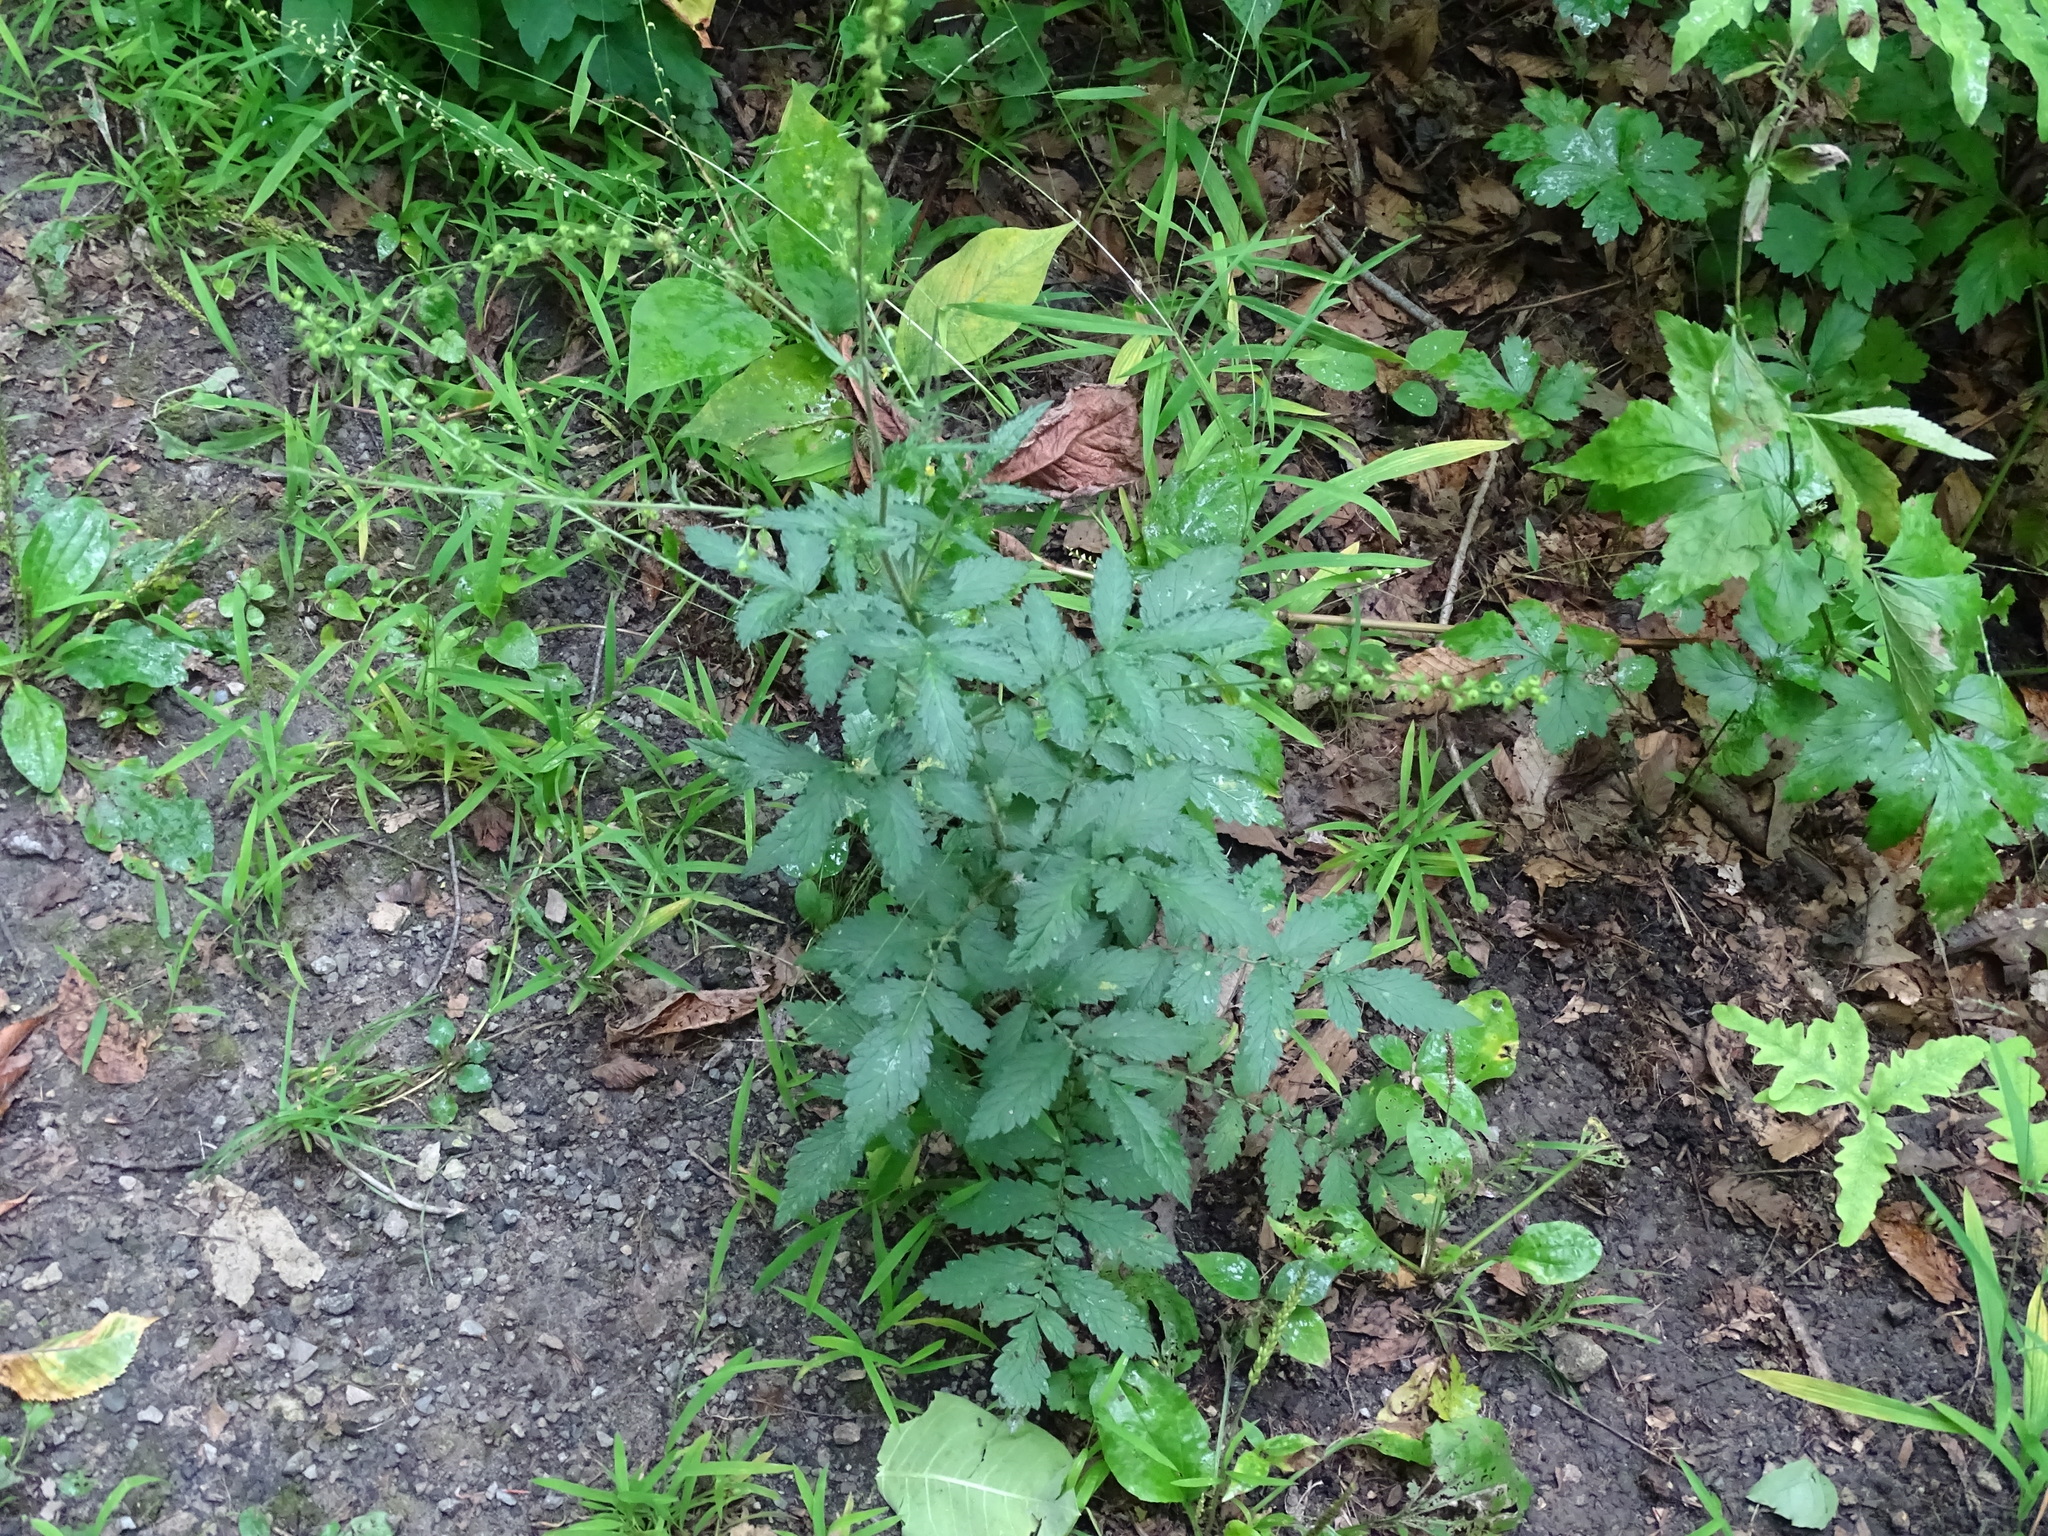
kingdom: Plantae
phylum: Tracheophyta
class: Magnoliopsida
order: Rosales
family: Rosaceae
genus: Agrimonia
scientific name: Agrimonia pubescens
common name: Downy agrimony
